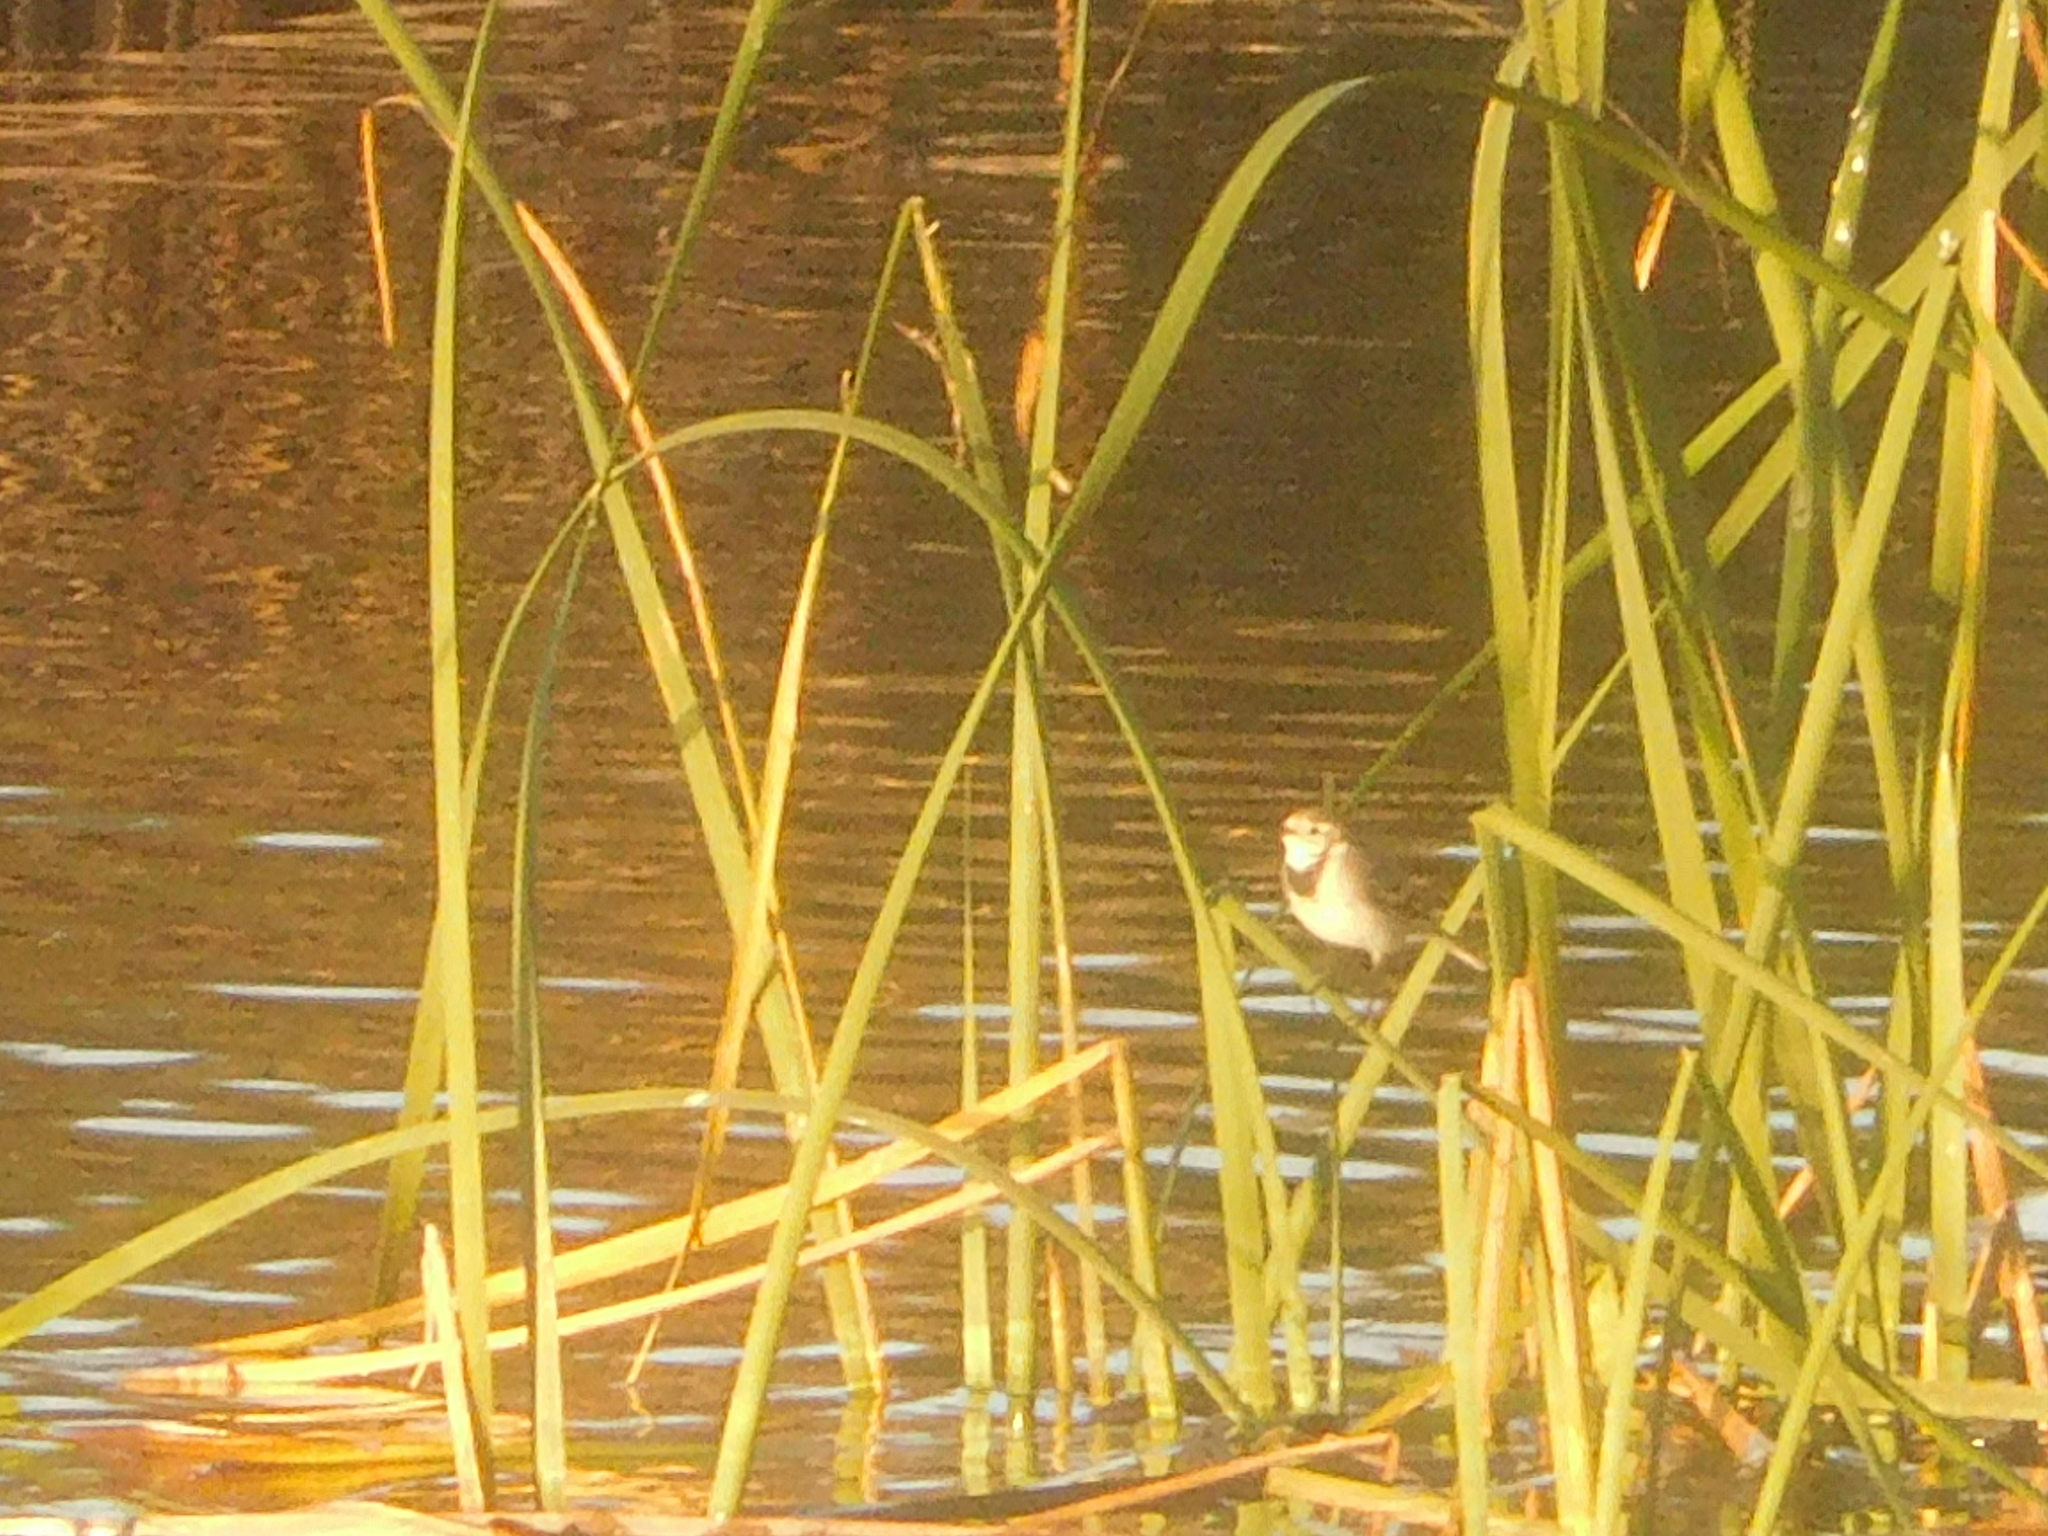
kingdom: Animalia
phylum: Chordata
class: Aves
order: Passeriformes
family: Motacillidae
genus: Motacilla
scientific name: Motacilla alba
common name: White wagtail
